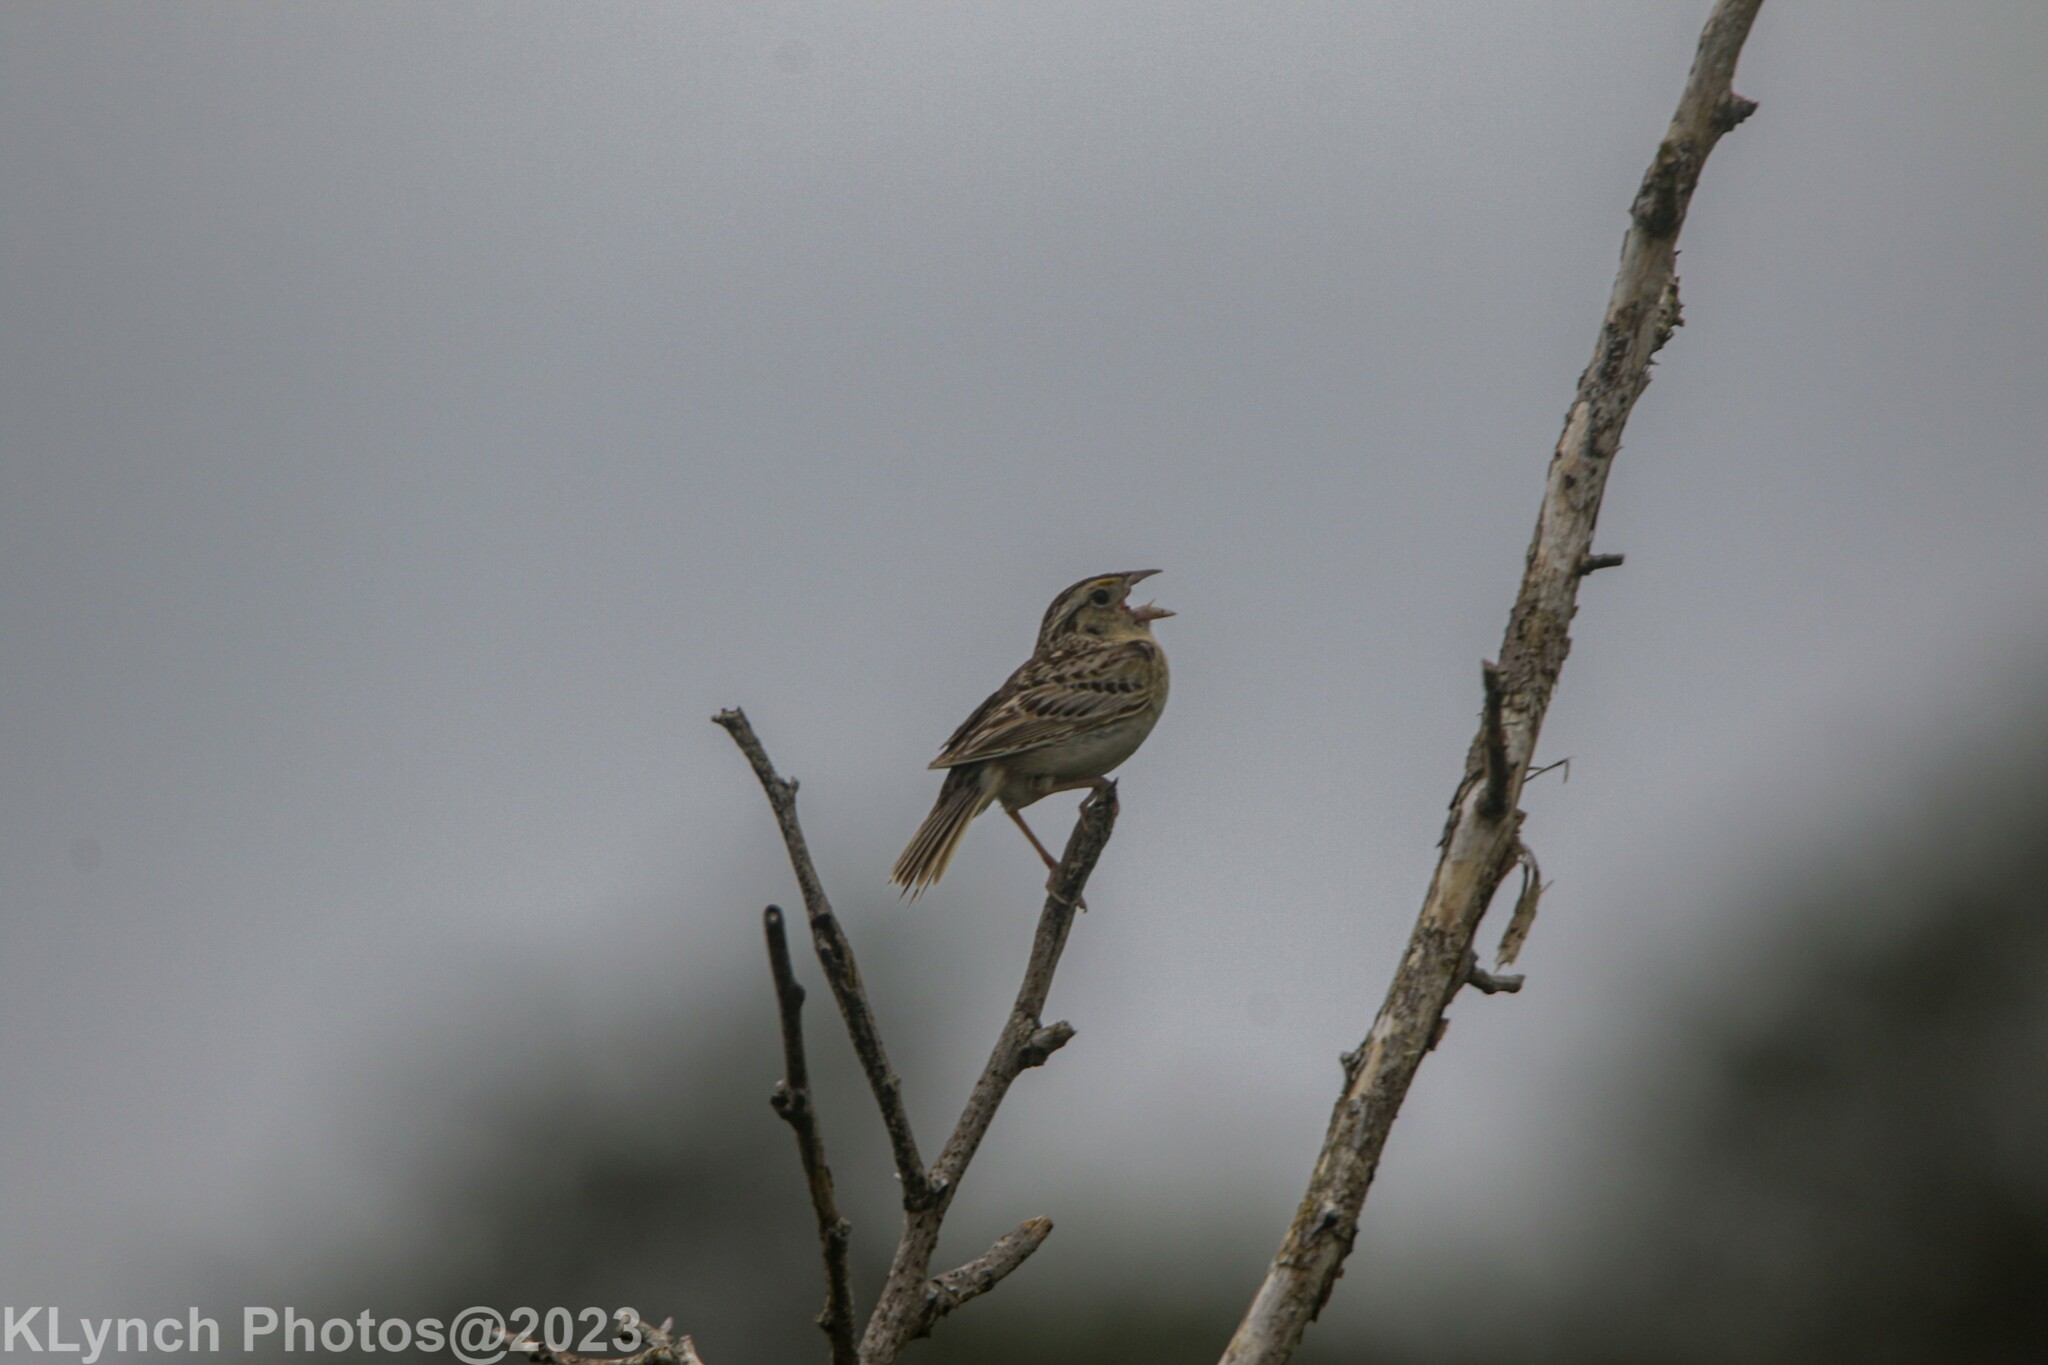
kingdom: Animalia
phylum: Chordata
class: Aves
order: Passeriformes
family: Passerellidae
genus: Ammodramus
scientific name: Ammodramus savannarum
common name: Grasshopper sparrow
